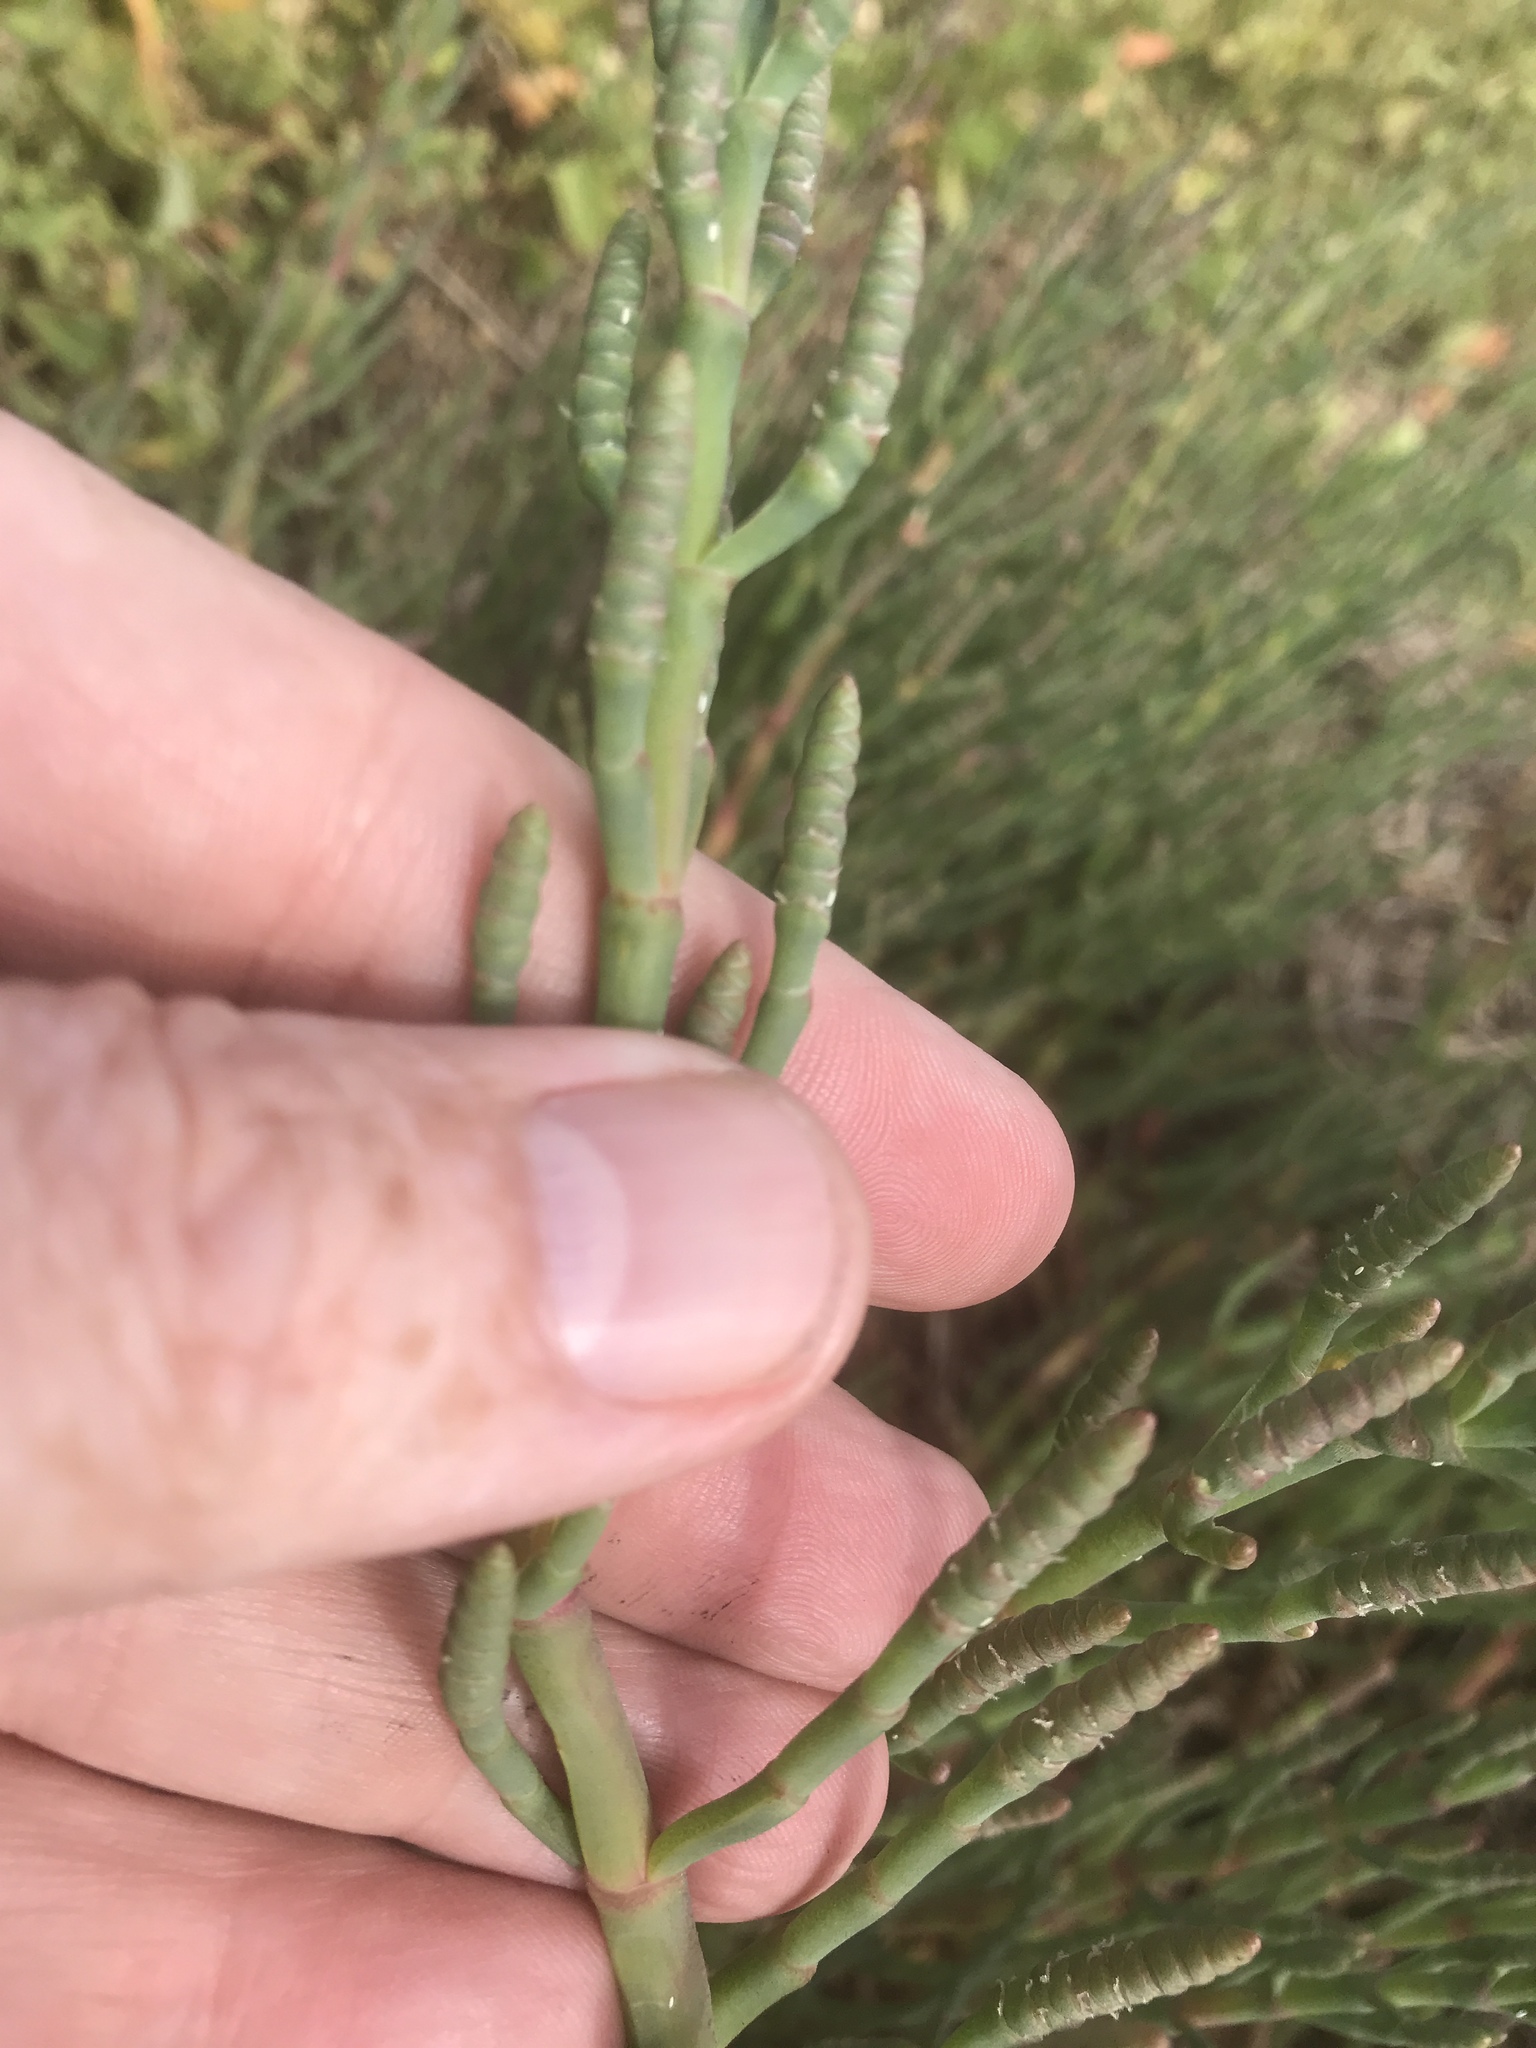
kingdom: Plantae
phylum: Tracheophyta
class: Magnoliopsida
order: Caryophyllales
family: Amaranthaceae
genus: Salicornia
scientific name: Salicornia pacifica
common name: Pacific glasswort
